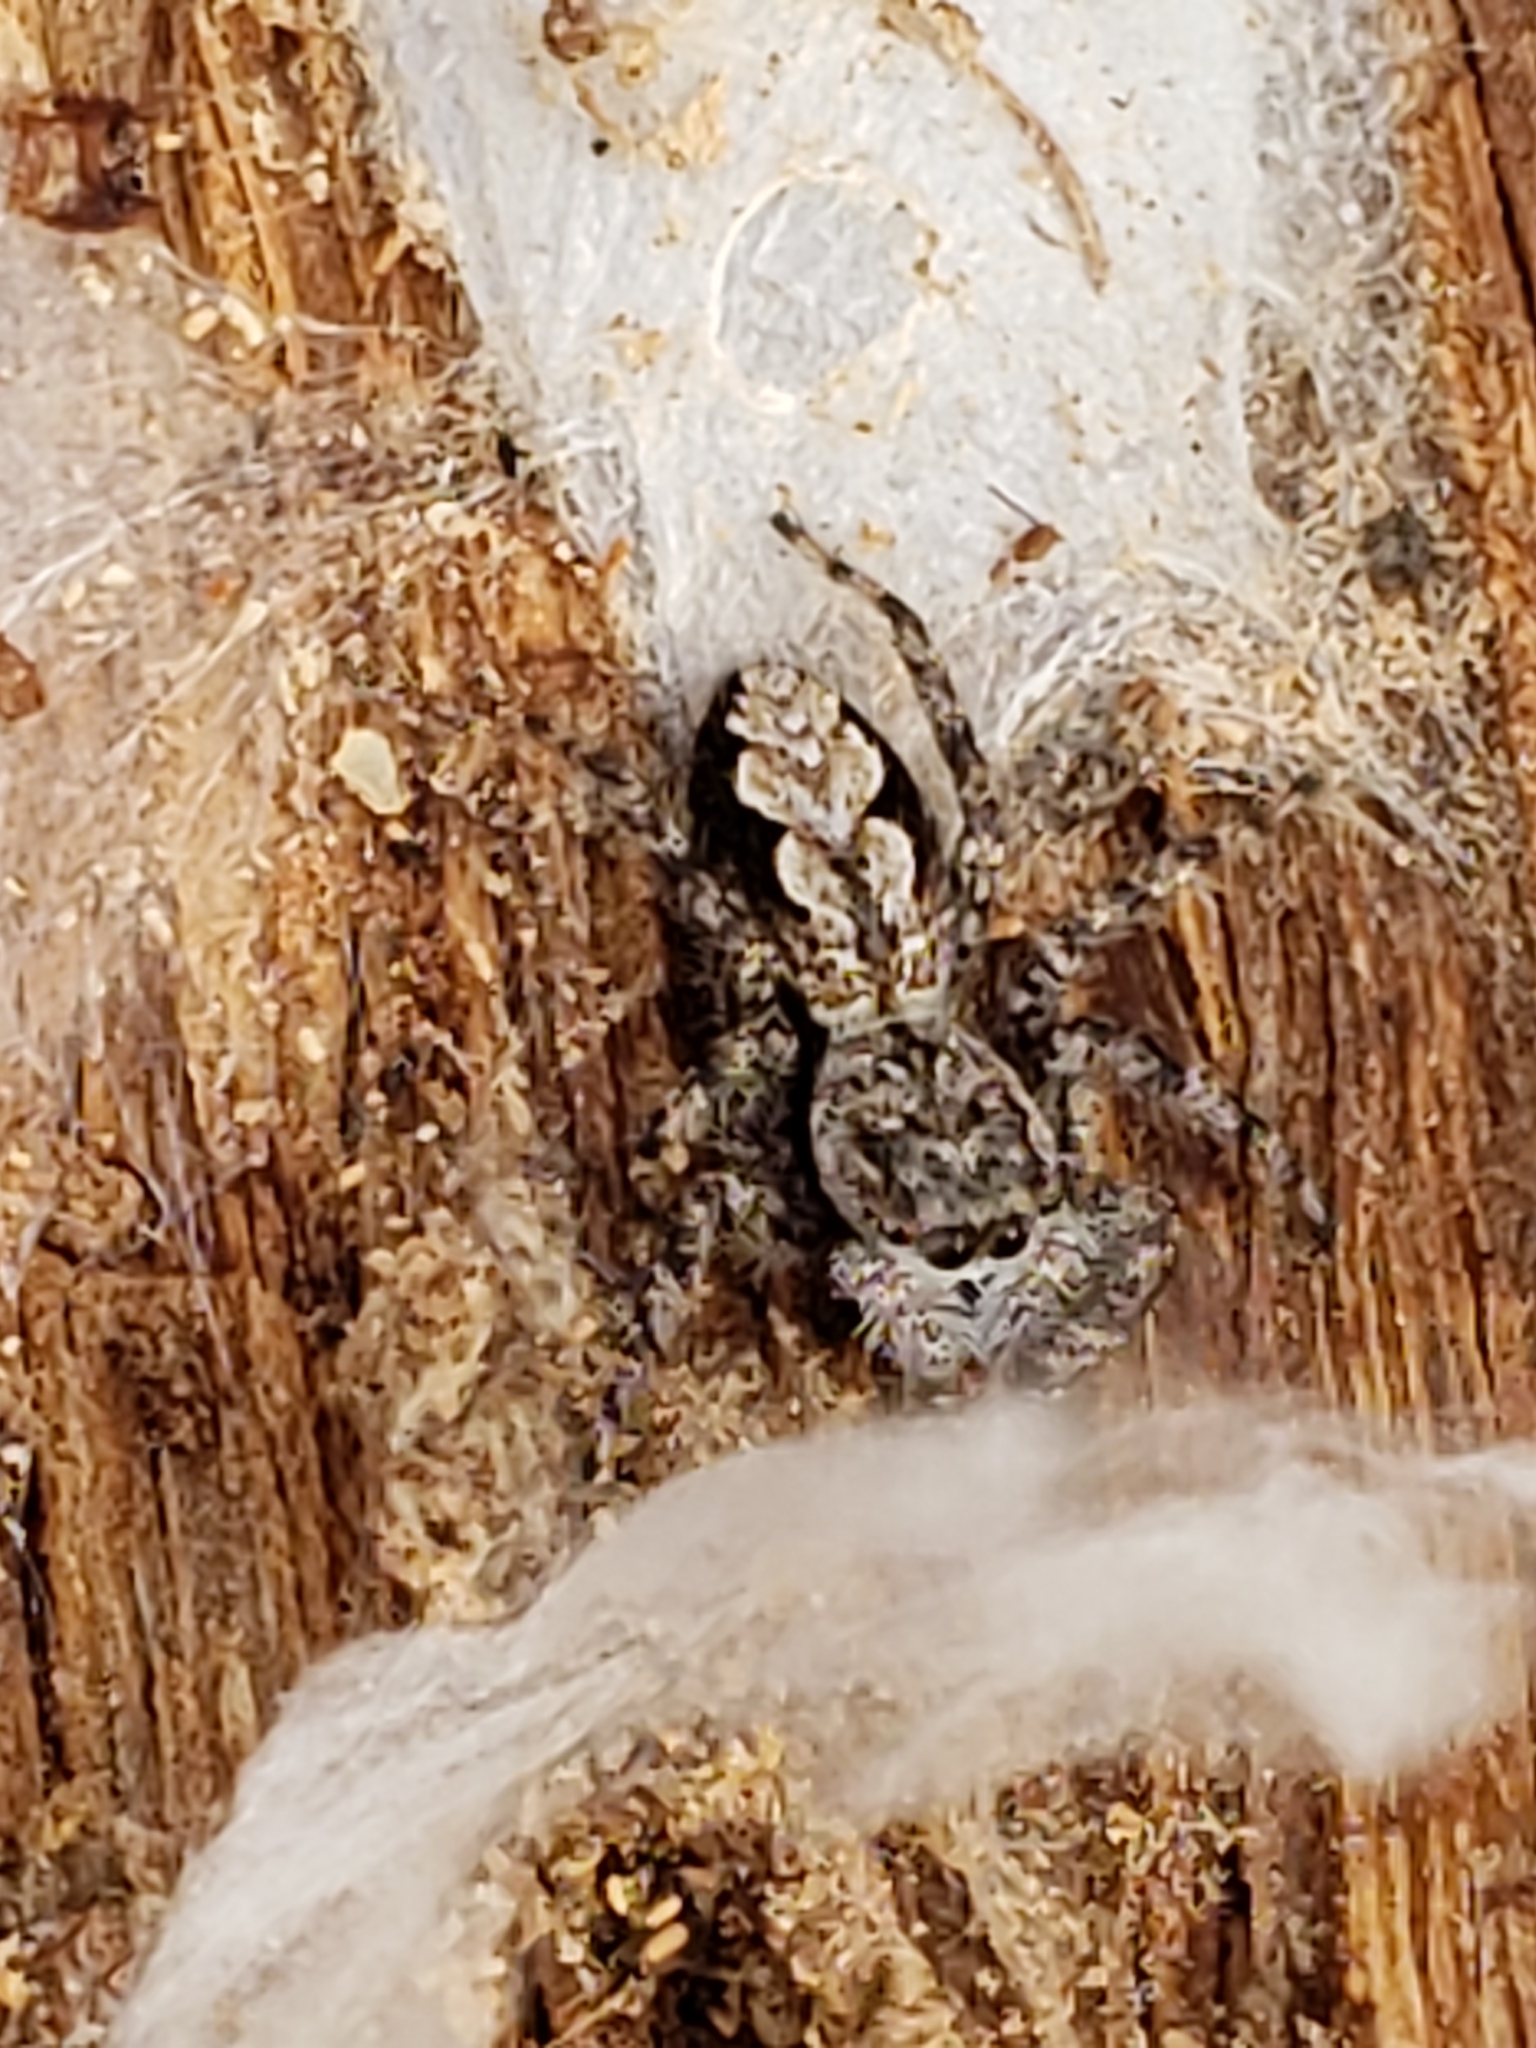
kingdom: Animalia
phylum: Arthropoda
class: Arachnida
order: Araneae
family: Salticidae
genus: Platycryptus
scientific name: Platycryptus undatus
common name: Tan jumping spider
